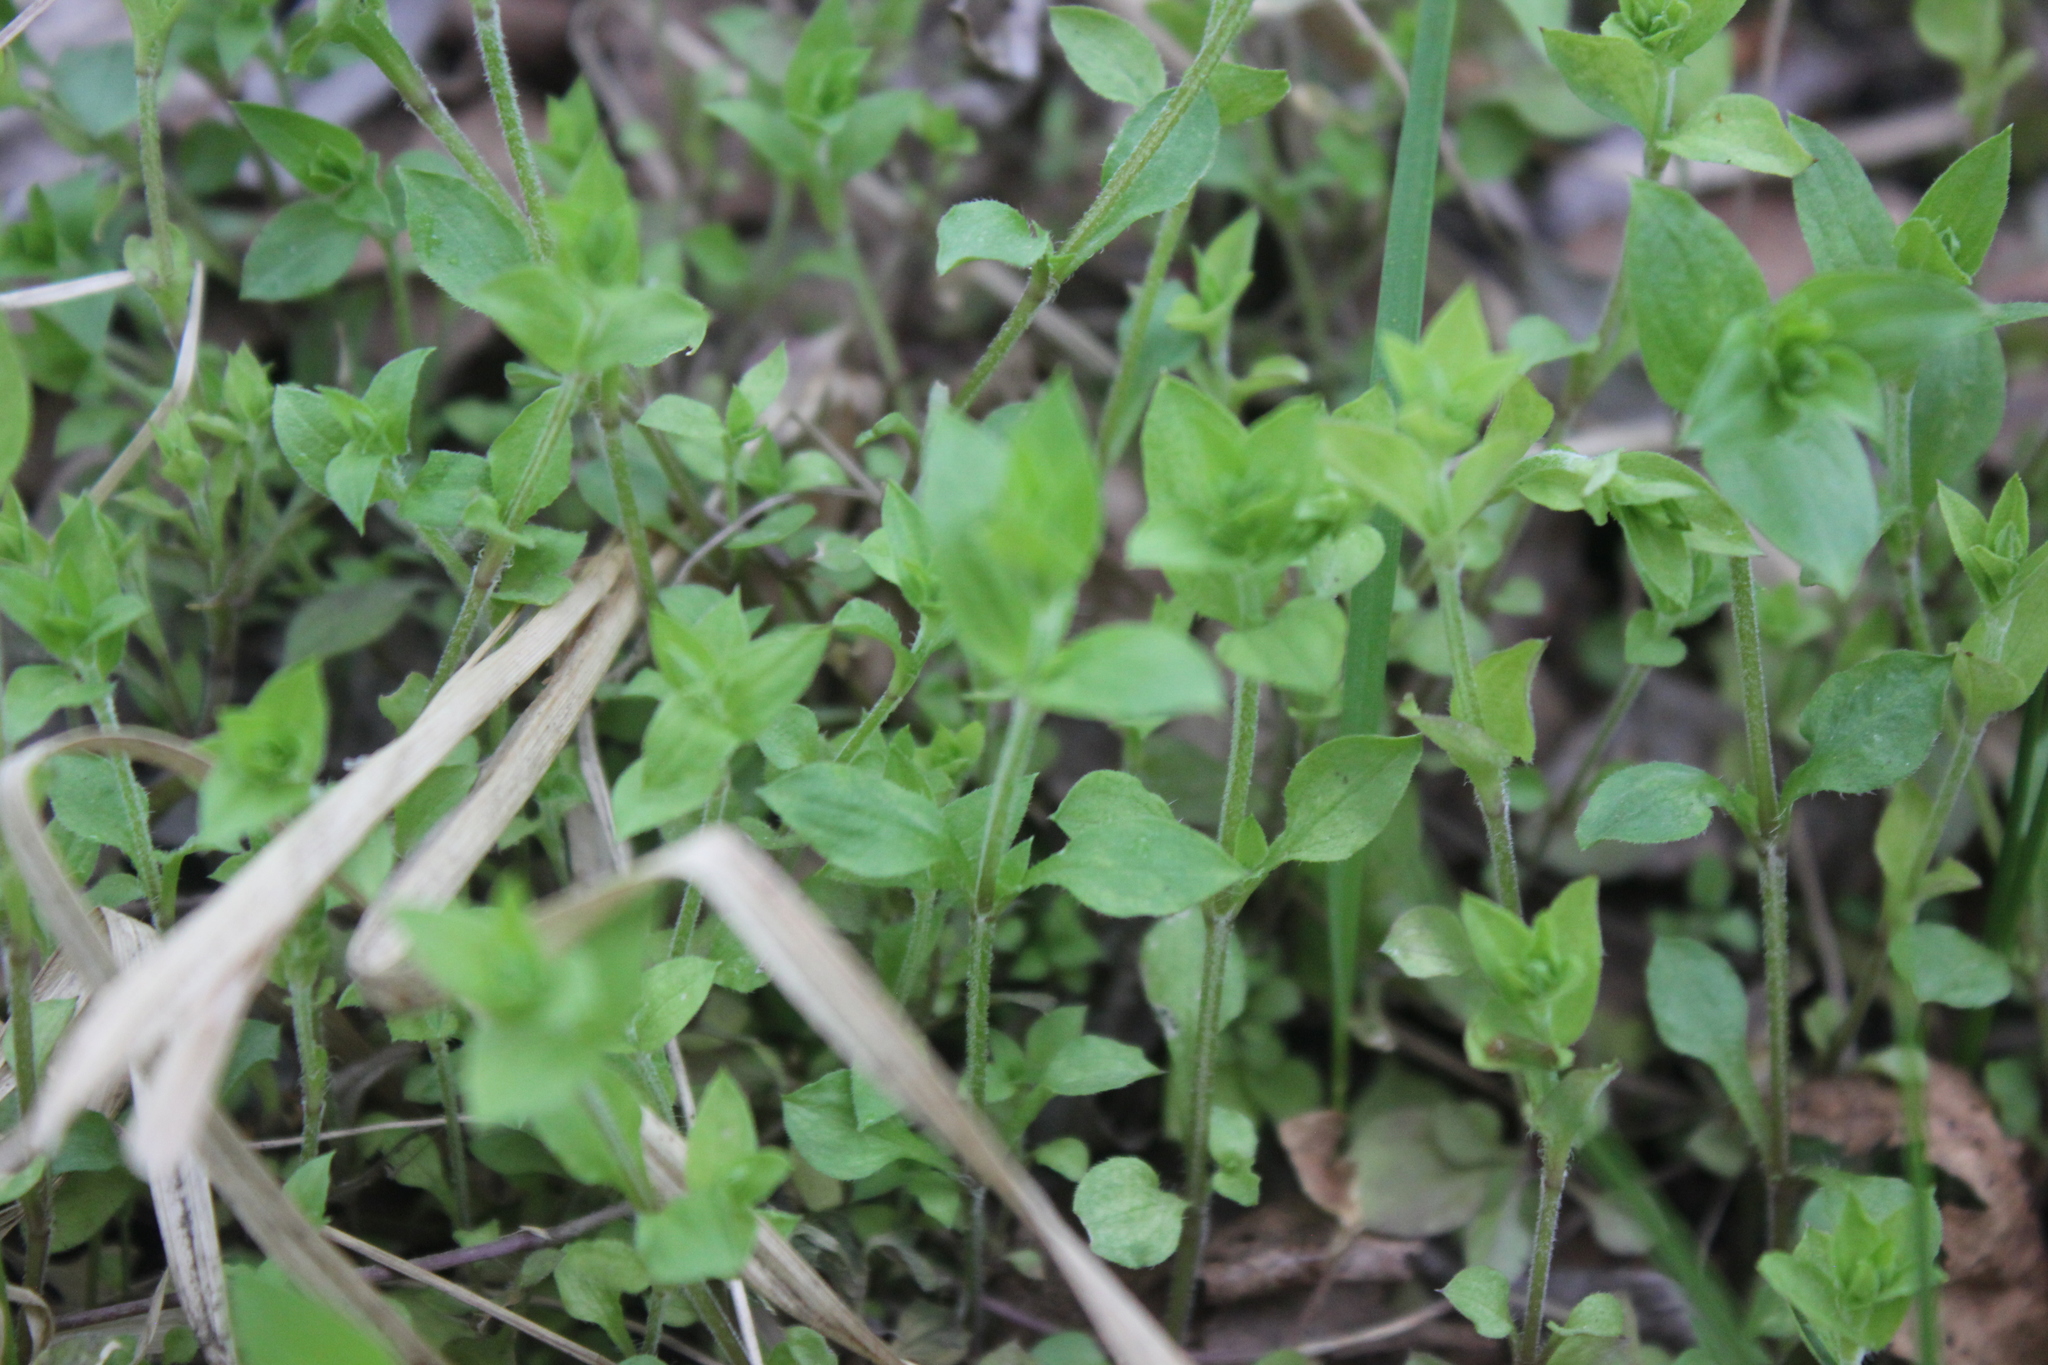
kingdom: Plantae
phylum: Tracheophyta
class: Magnoliopsida
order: Caryophyllales
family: Caryophyllaceae
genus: Moehringia
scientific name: Moehringia trinervia
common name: Three-nerved sandwort
